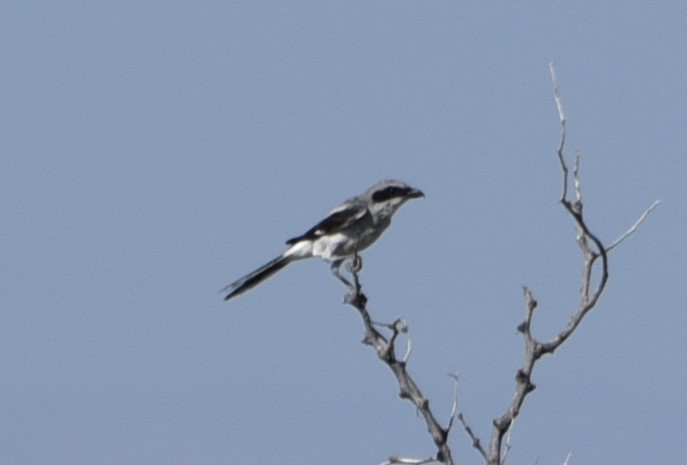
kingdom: Animalia
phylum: Chordata
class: Aves
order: Passeriformes
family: Laniidae
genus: Lanius
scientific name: Lanius ludovicianus
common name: Loggerhead shrike
